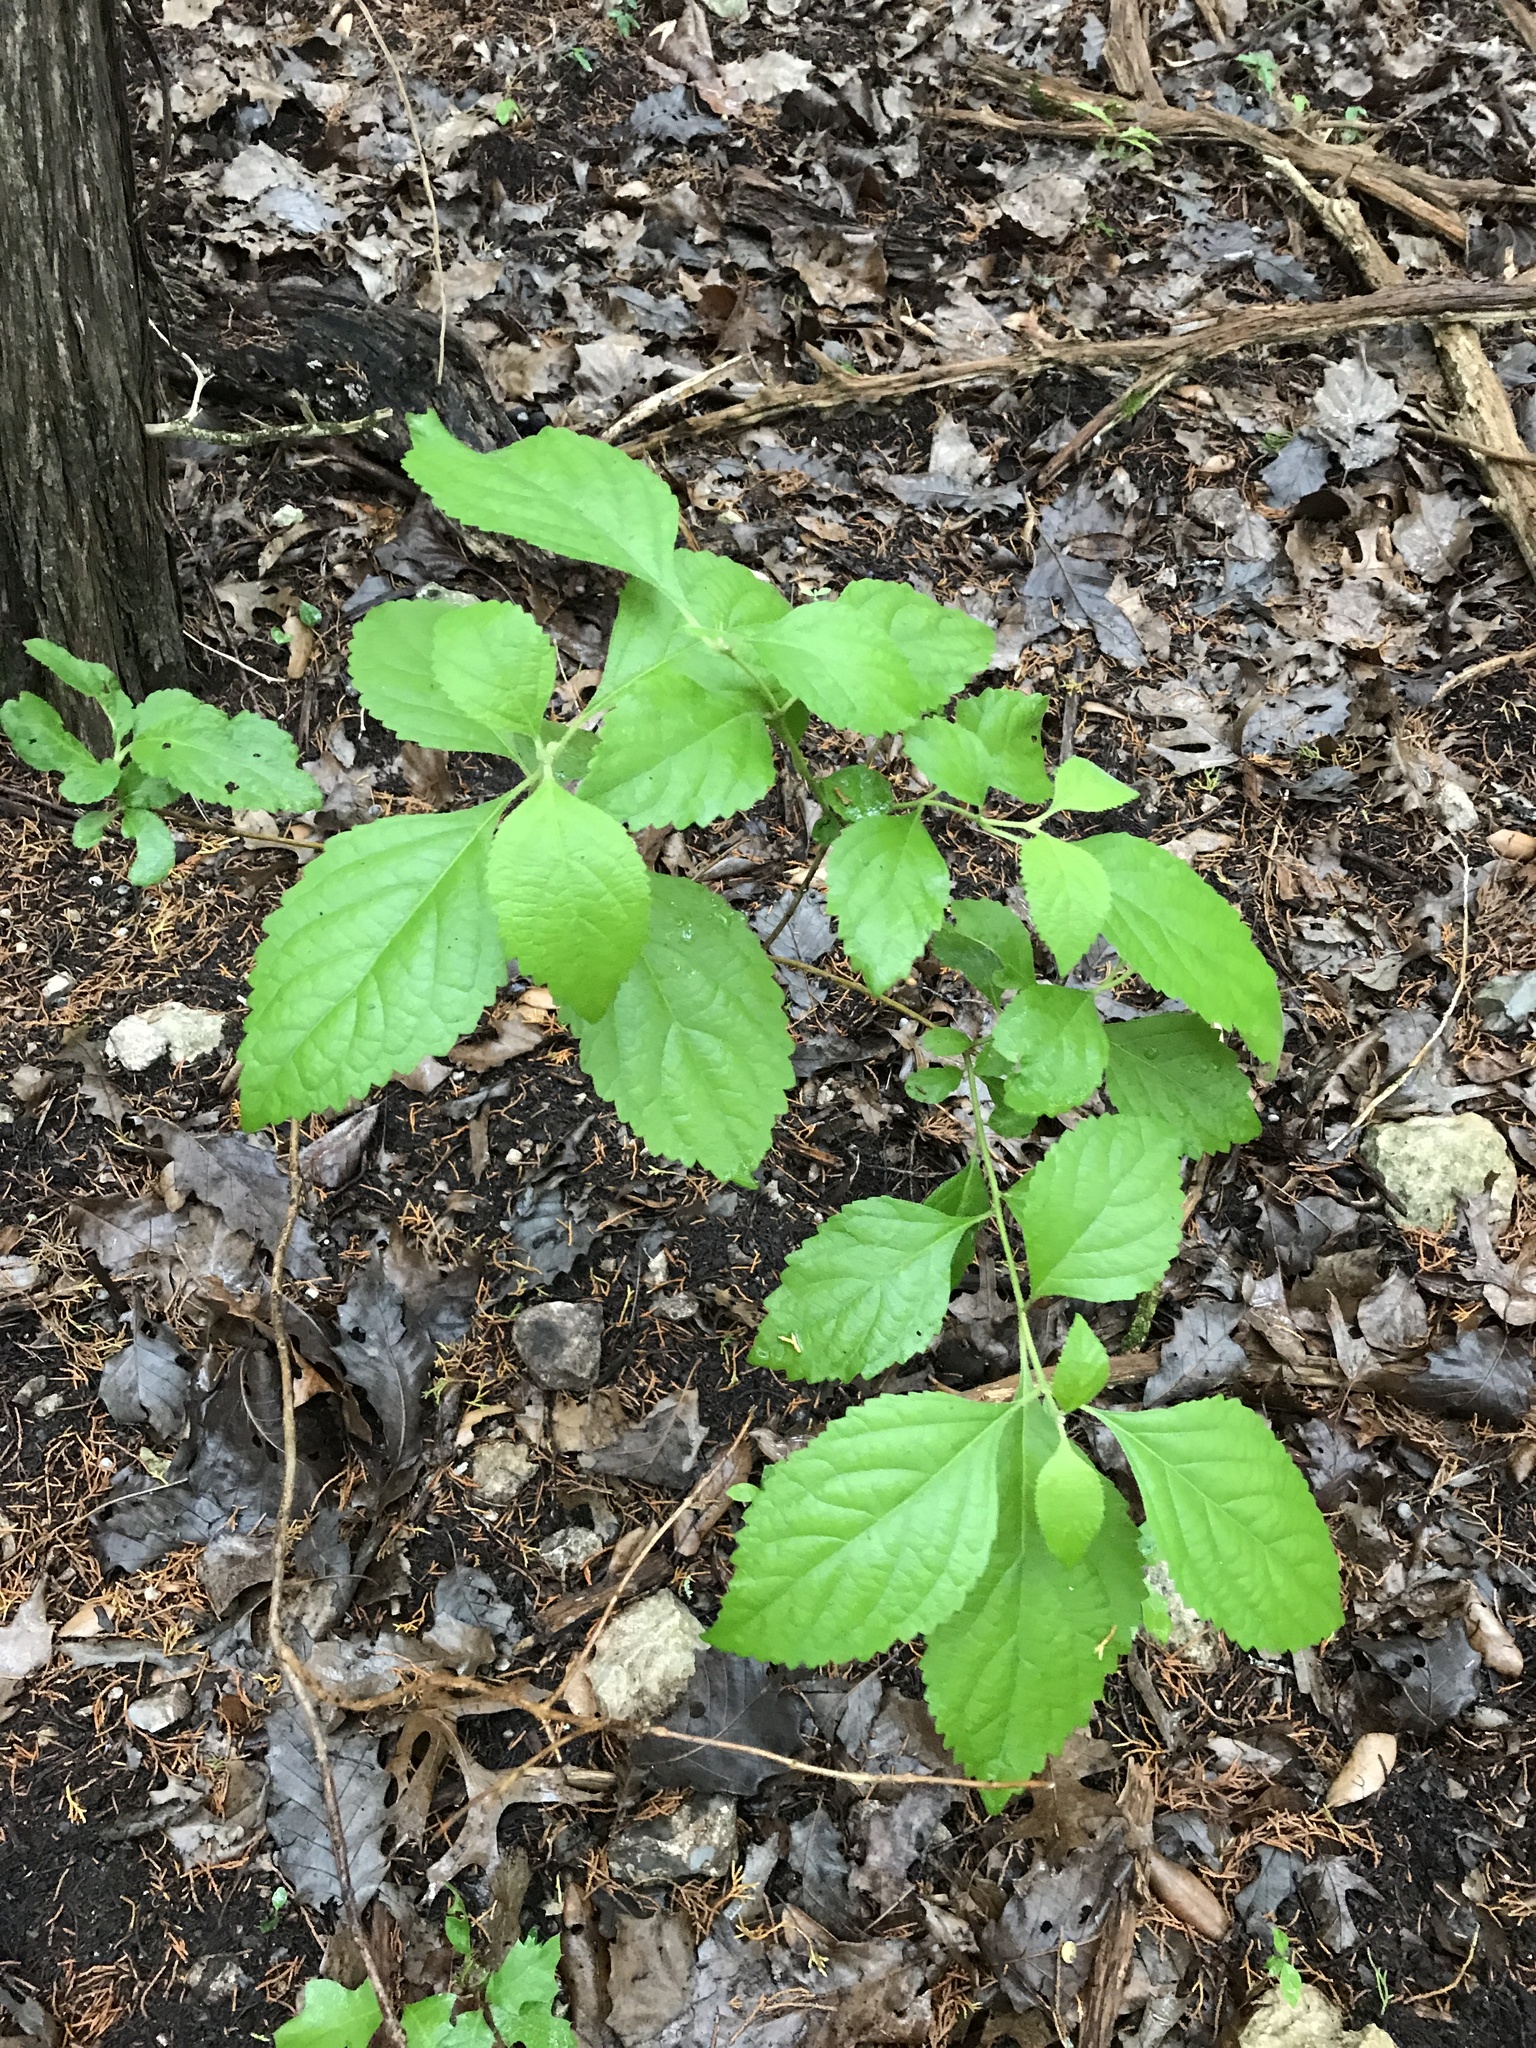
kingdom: Plantae
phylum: Tracheophyta
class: Magnoliopsida
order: Lamiales
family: Lamiaceae
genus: Callicarpa
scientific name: Callicarpa americana
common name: American beautyberry
